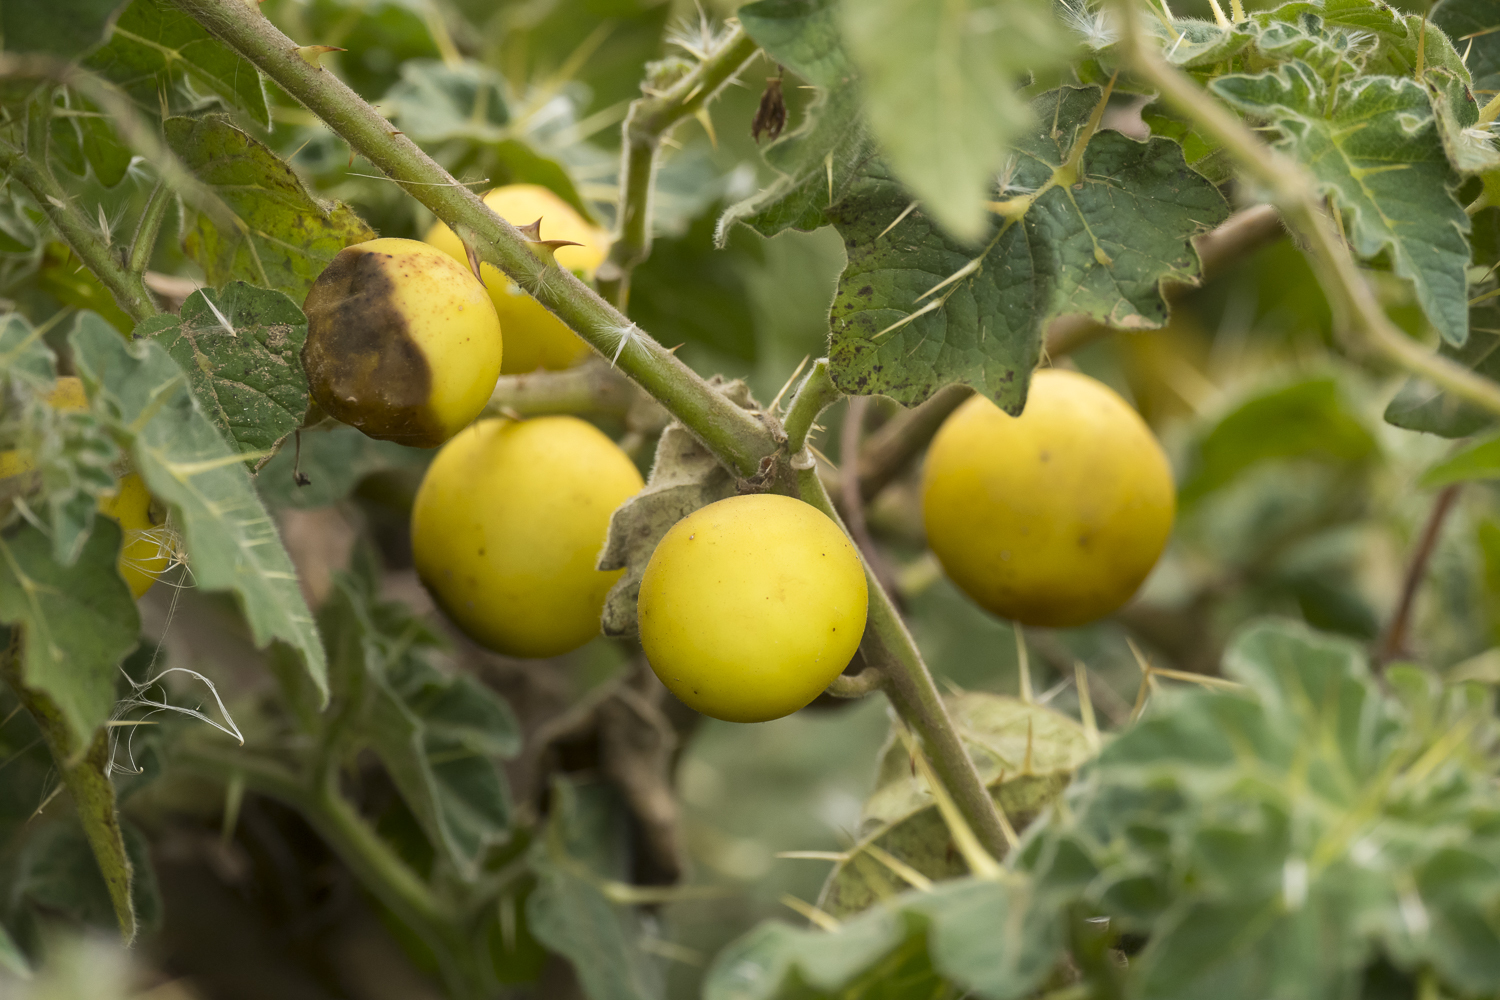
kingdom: Plantae
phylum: Tracheophyta
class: Magnoliopsida
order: Solanales
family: Solanaceae
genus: Solanum
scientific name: Solanum viarum
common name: Tropical soda apple
